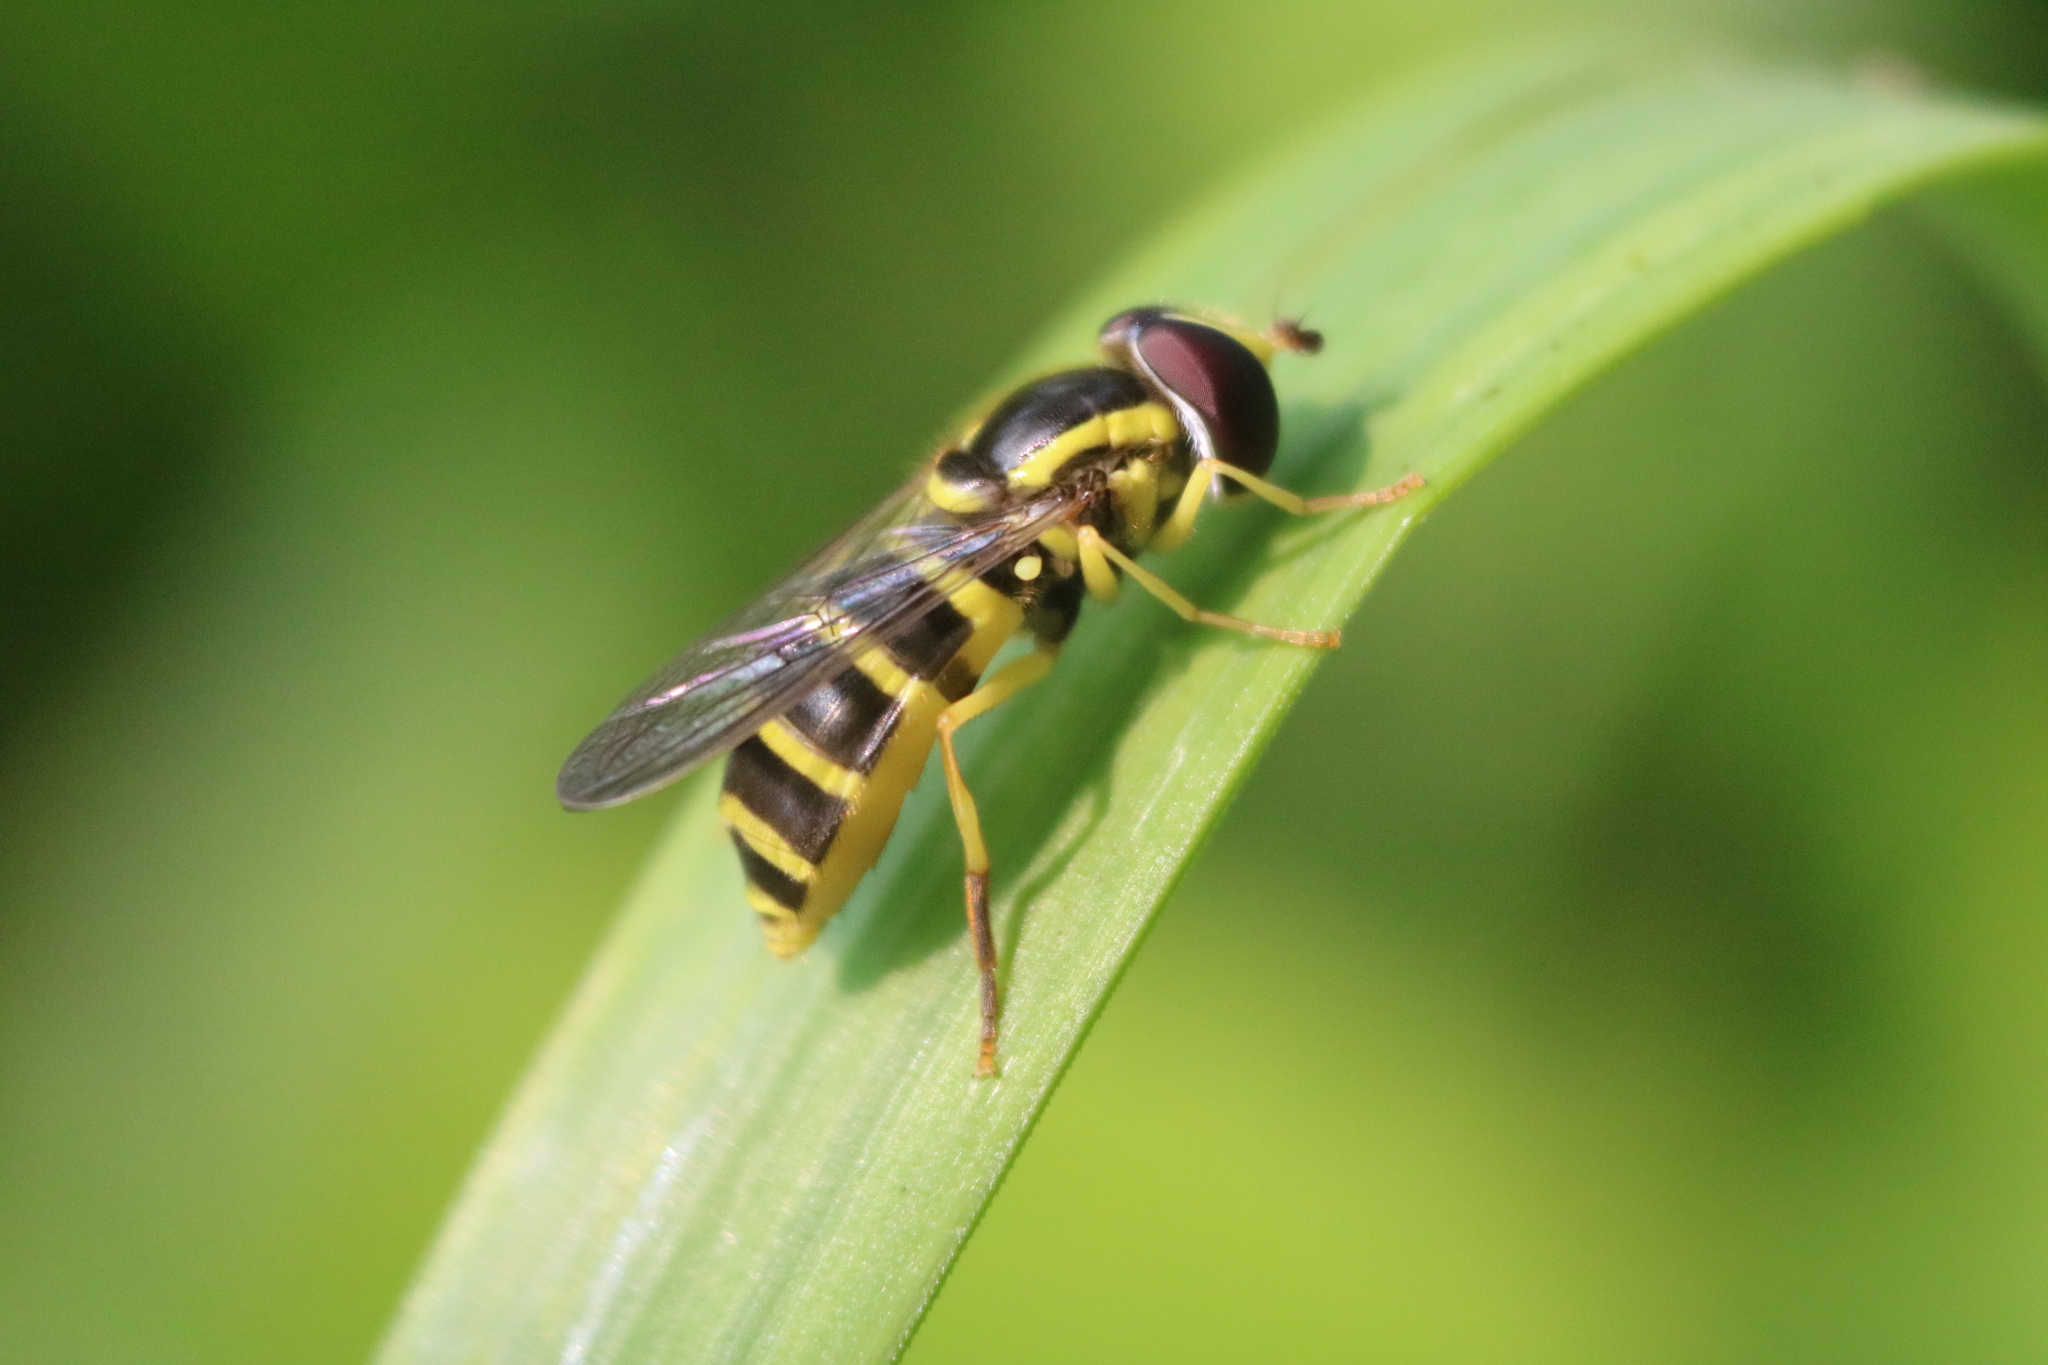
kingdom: Animalia
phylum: Arthropoda
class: Insecta
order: Diptera
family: Syrphidae
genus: Philhelius
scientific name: Philhelius flavipes
